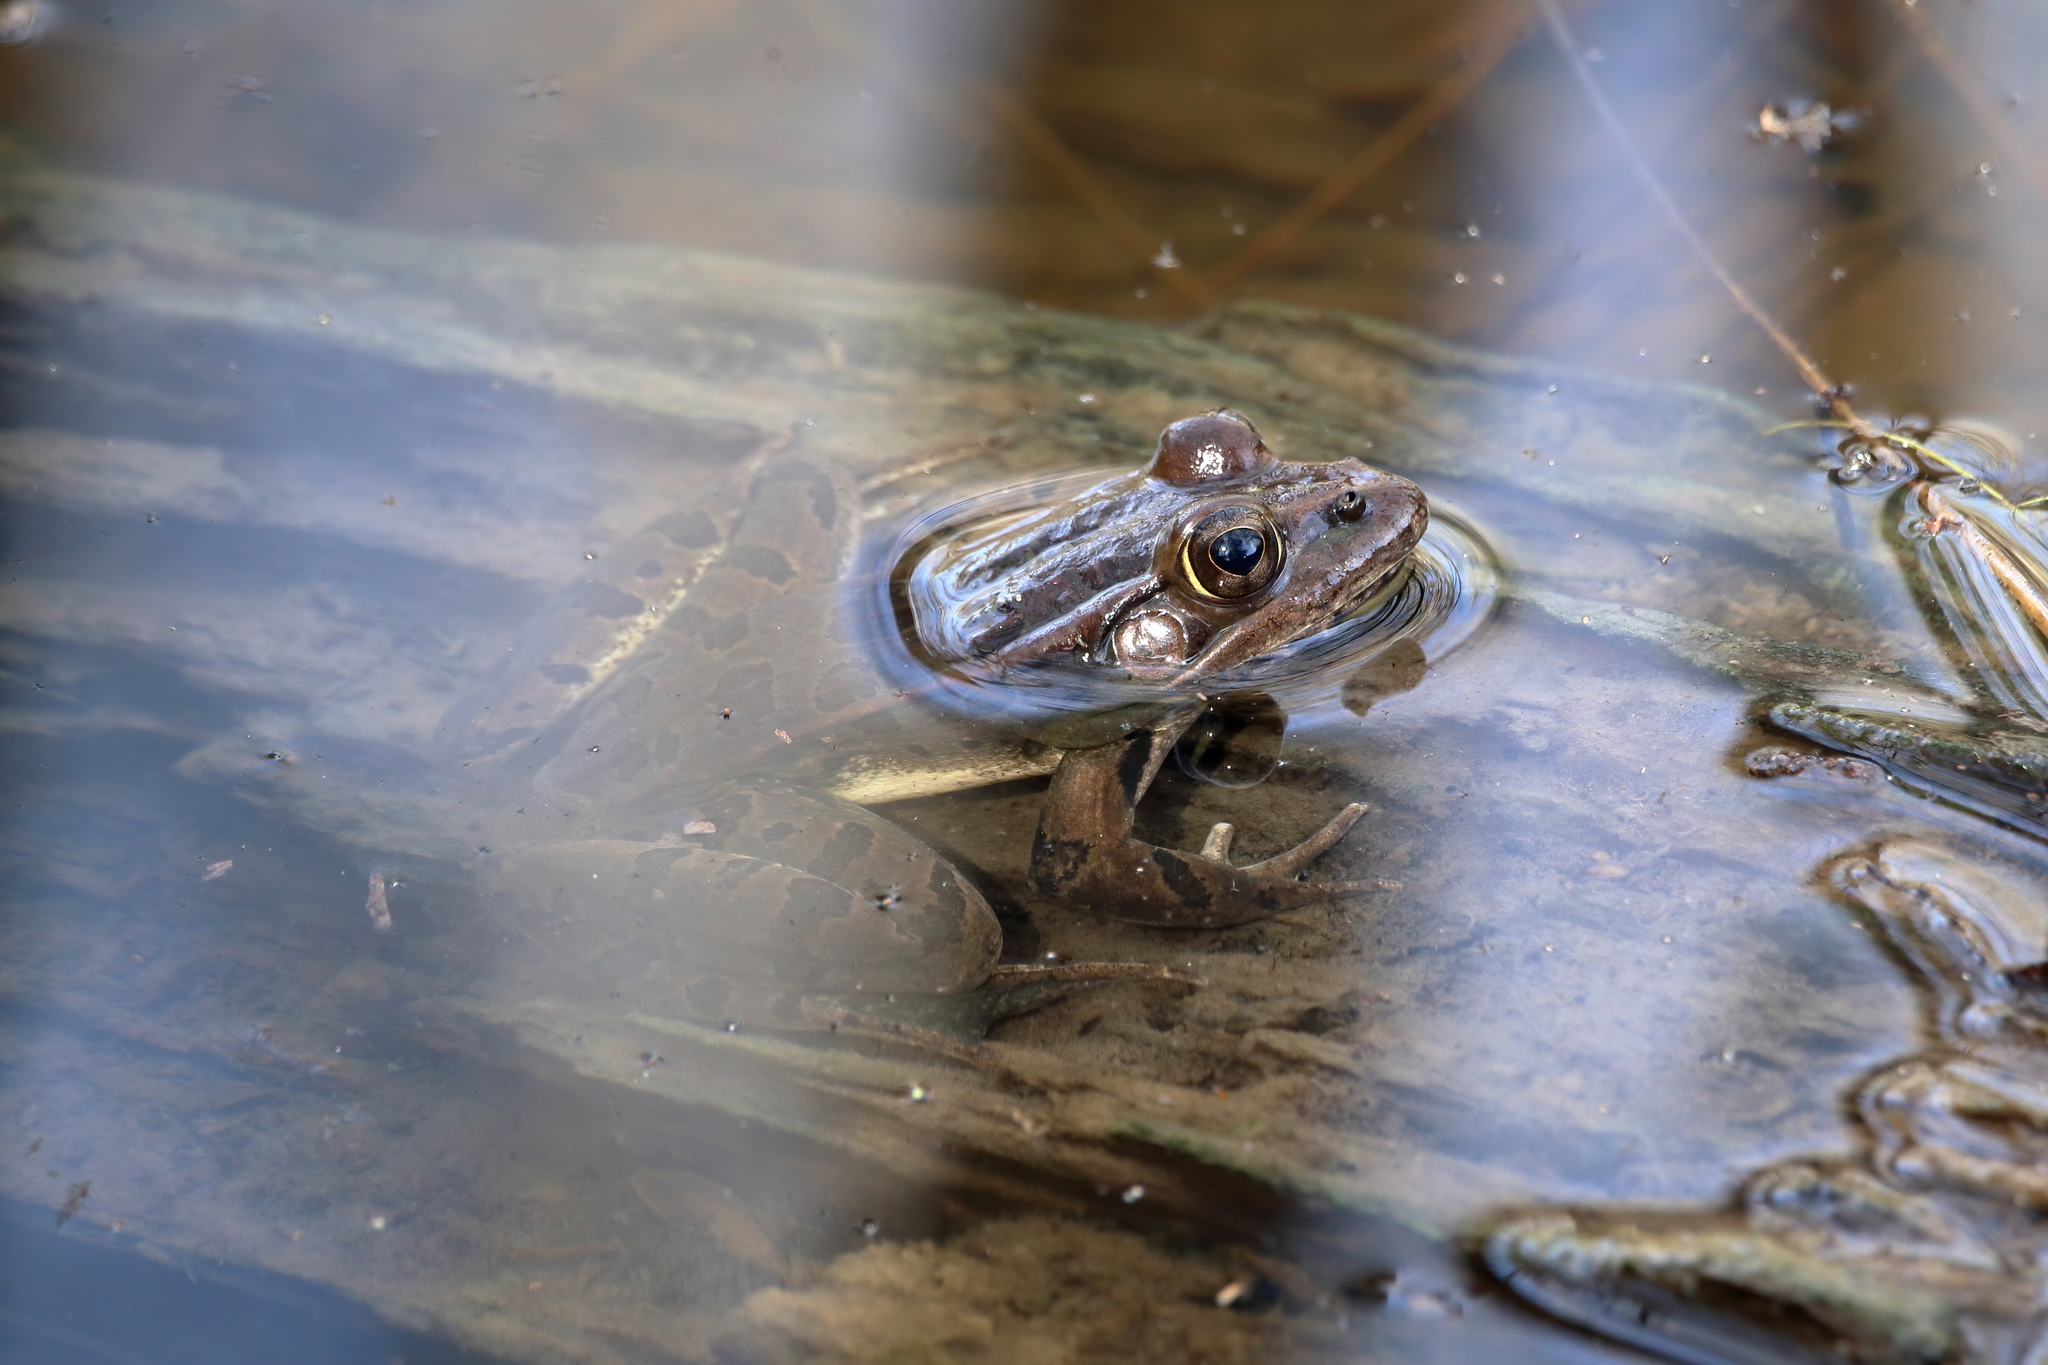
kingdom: Animalia
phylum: Chordata
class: Amphibia
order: Anura
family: Ranidae
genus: Lithobates
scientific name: Lithobates berlandieri
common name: Rio grande leopard frog
